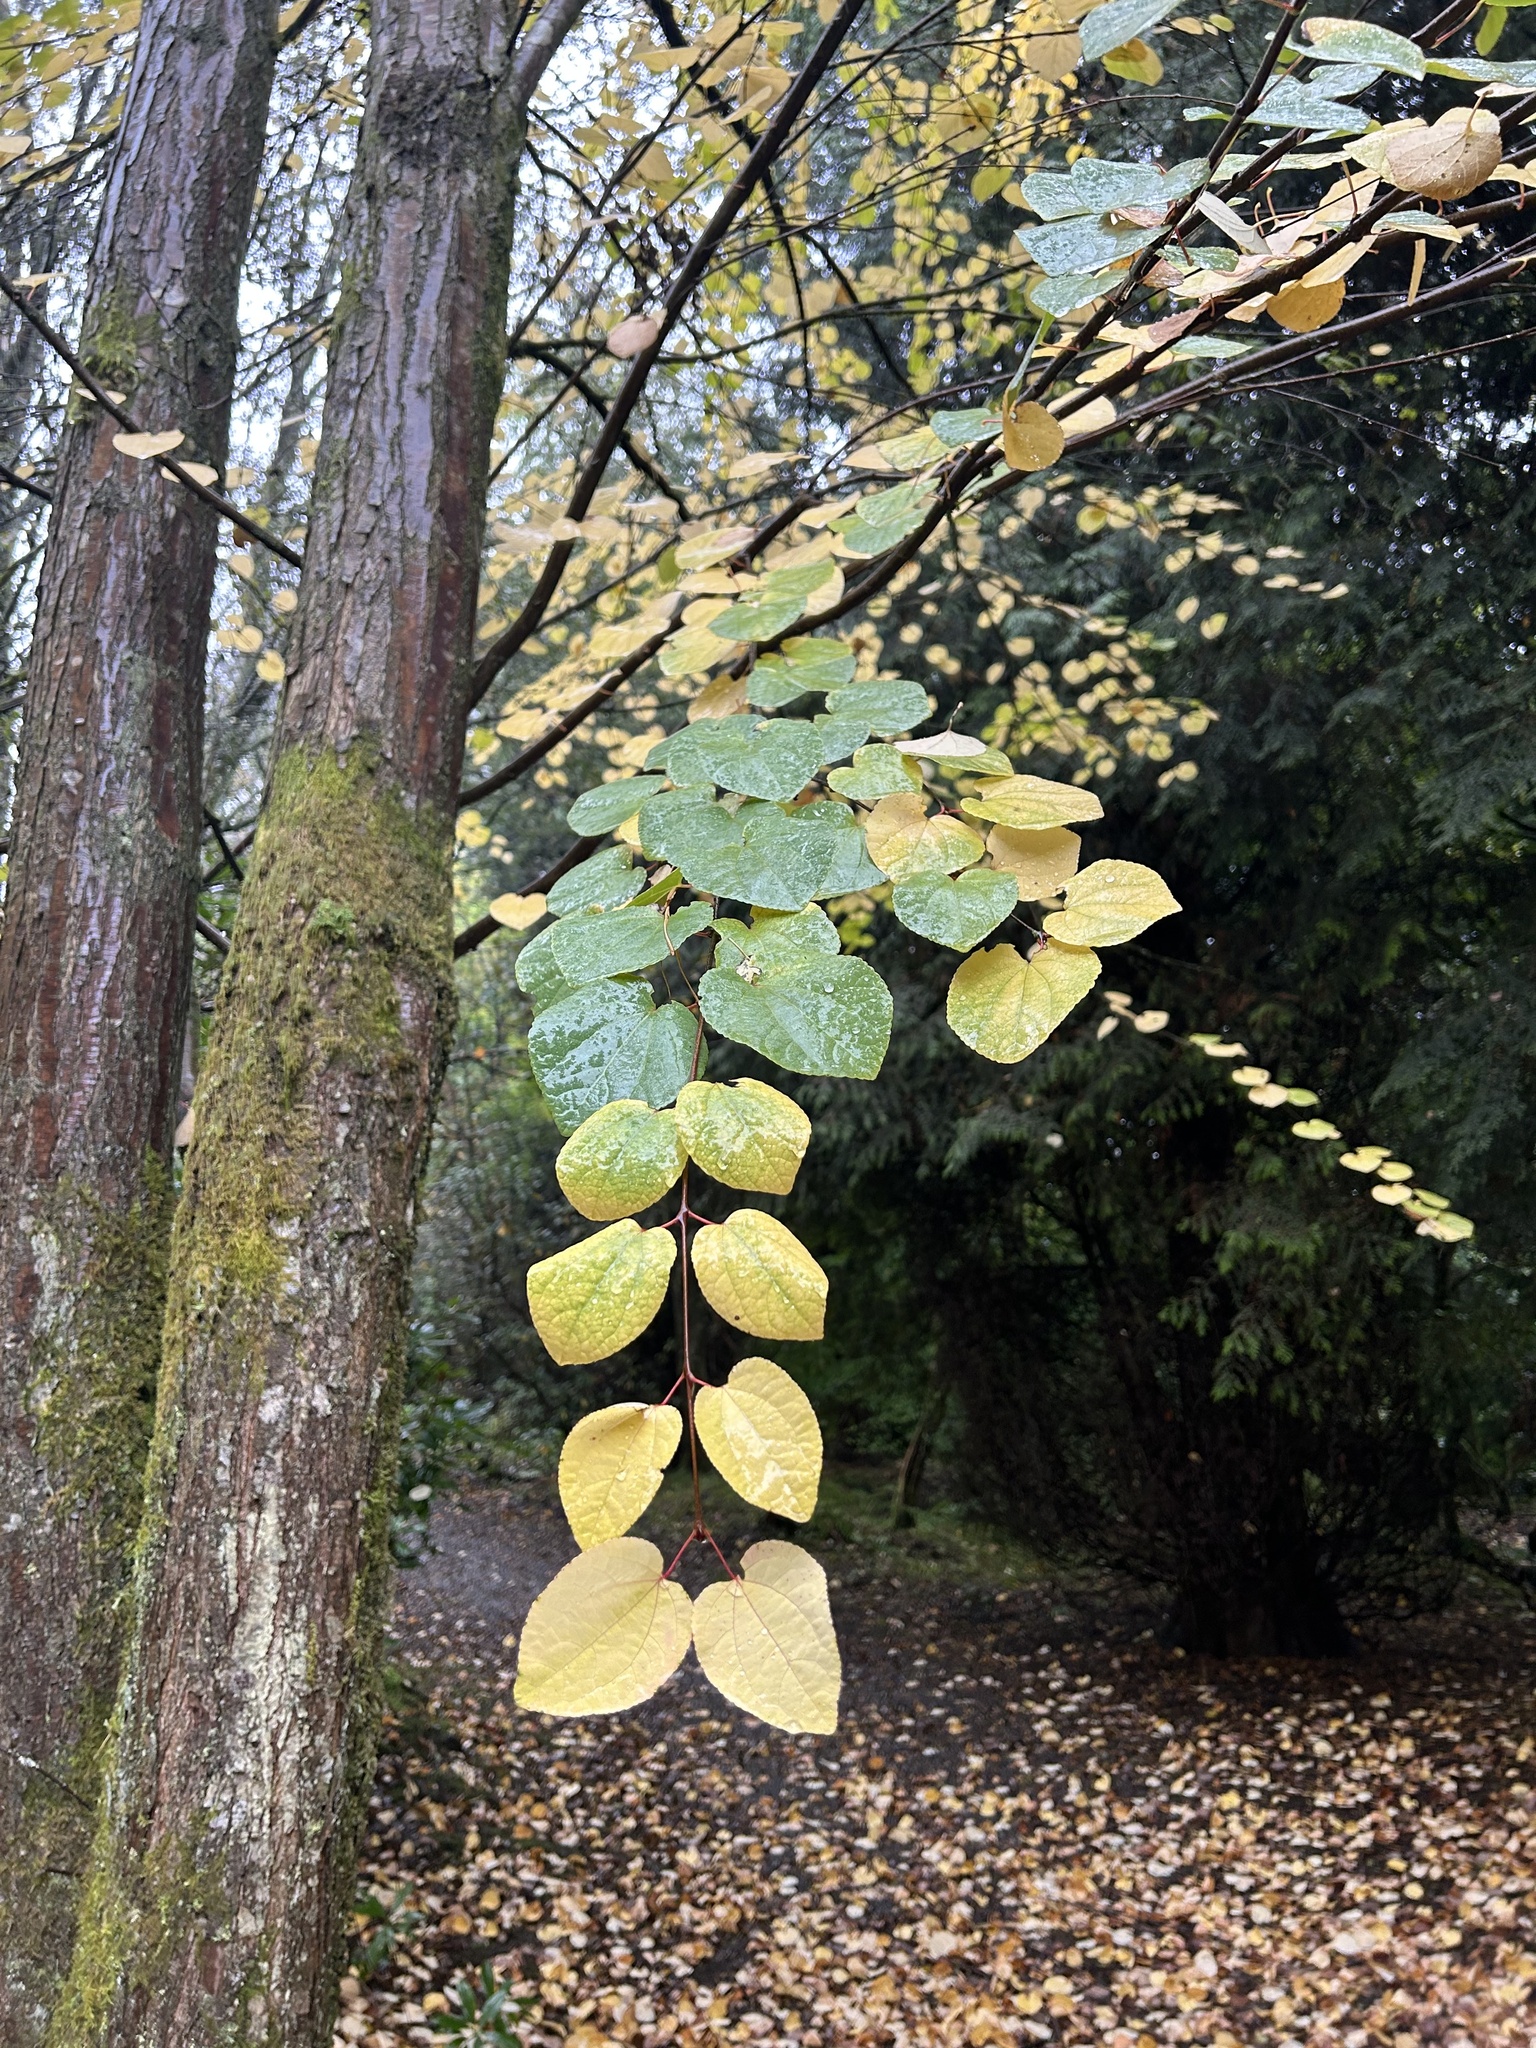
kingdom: Plantae
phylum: Tracheophyta
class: Magnoliopsida
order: Saxifragales
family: Cercidiphyllaceae
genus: Cercidiphyllum
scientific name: Cercidiphyllum japonicum
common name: Katsura tree
